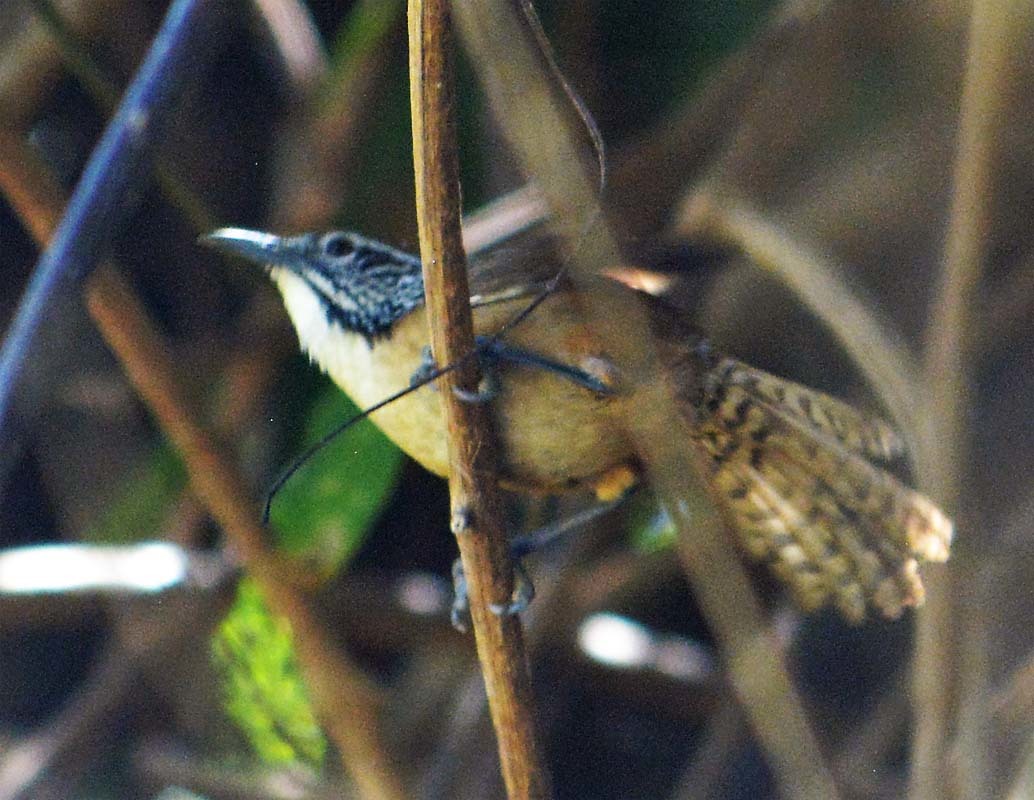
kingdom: Animalia
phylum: Chordata
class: Aves
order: Passeriformes
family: Troglodytidae
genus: Pheugopedius
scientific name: Pheugopedius felix
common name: Happy wren
